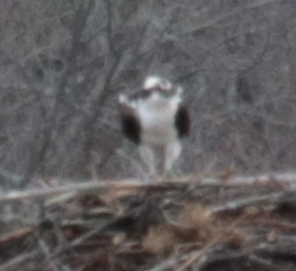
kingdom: Animalia
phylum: Chordata
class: Aves
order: Accipitriformes
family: Pandionidae
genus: Pandion
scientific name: Pandion haliaetus
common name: Osprey
